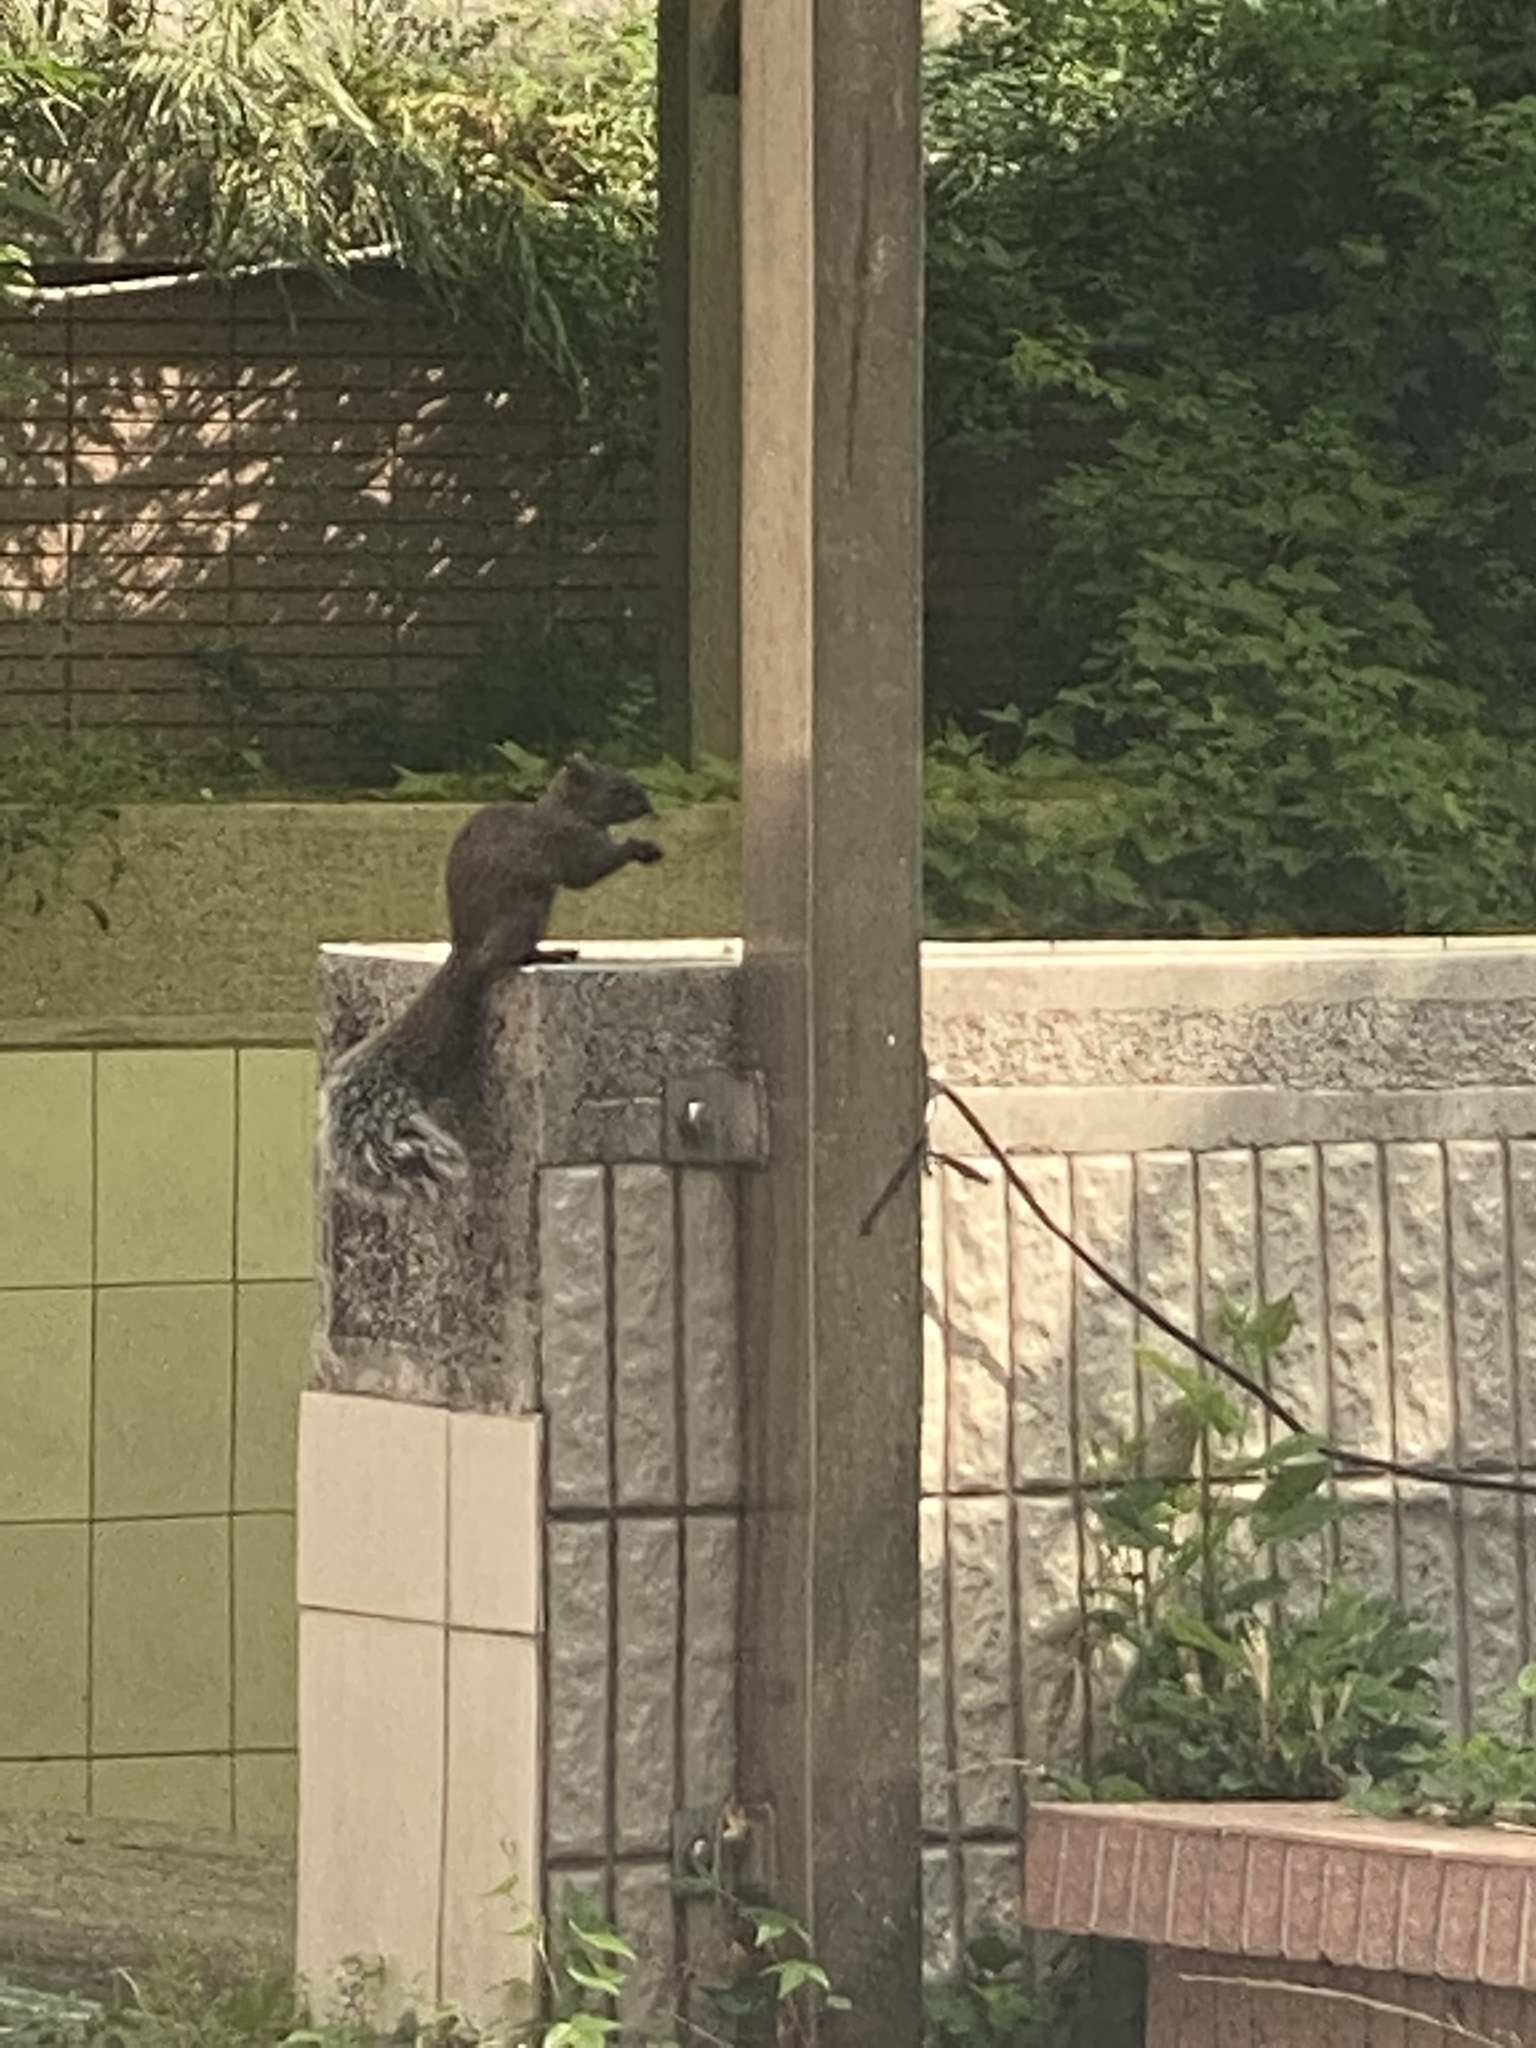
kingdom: Animalia
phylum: Chordata
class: Mammalia
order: Rodentia
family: Sciuridae
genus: Callosciurus
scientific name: Callosciurus erythraeus
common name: Pallas's squirrel
